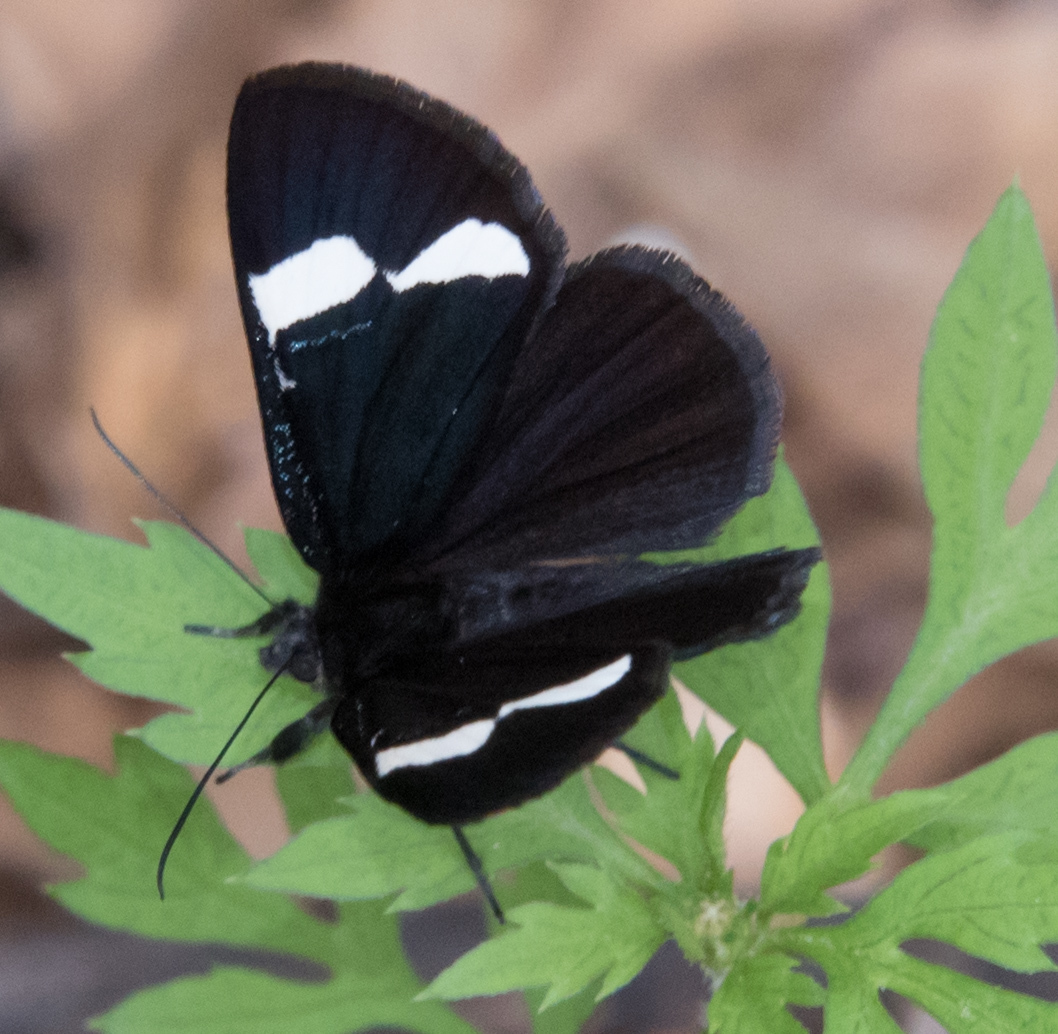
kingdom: Animalia
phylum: Arthropoda
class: Insecta
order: Lepidoptera
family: Noctuidae
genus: Alypiodes
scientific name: Alypiodes geronimo
